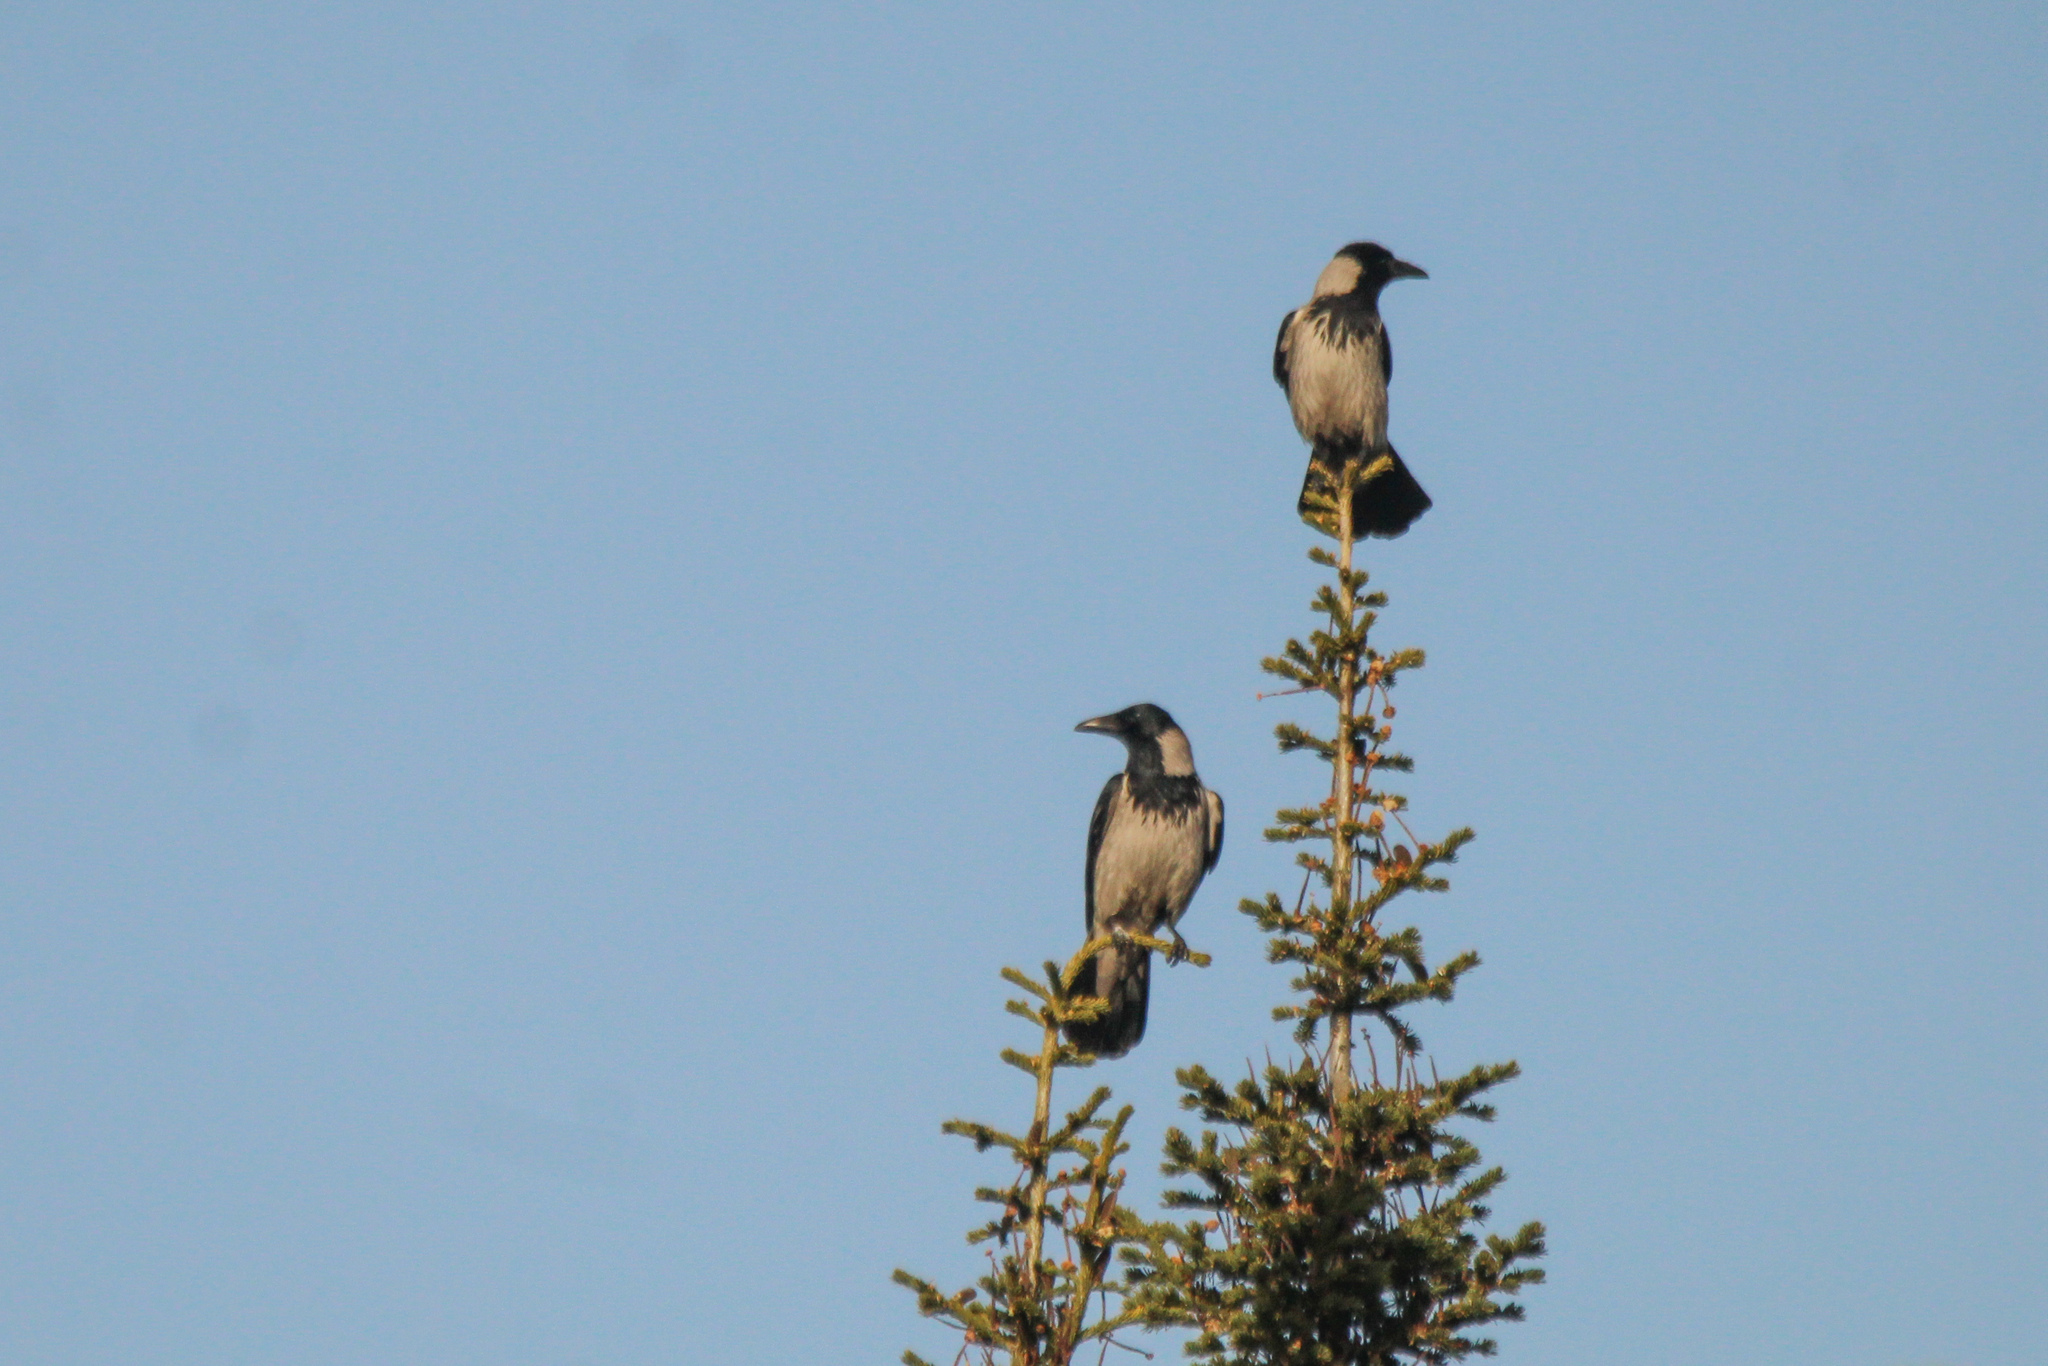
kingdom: Animalia
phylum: Chordata
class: Aves
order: Passeriformes
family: Corvidae
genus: Corvus
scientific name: Corvus cornix
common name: Hooded crow
